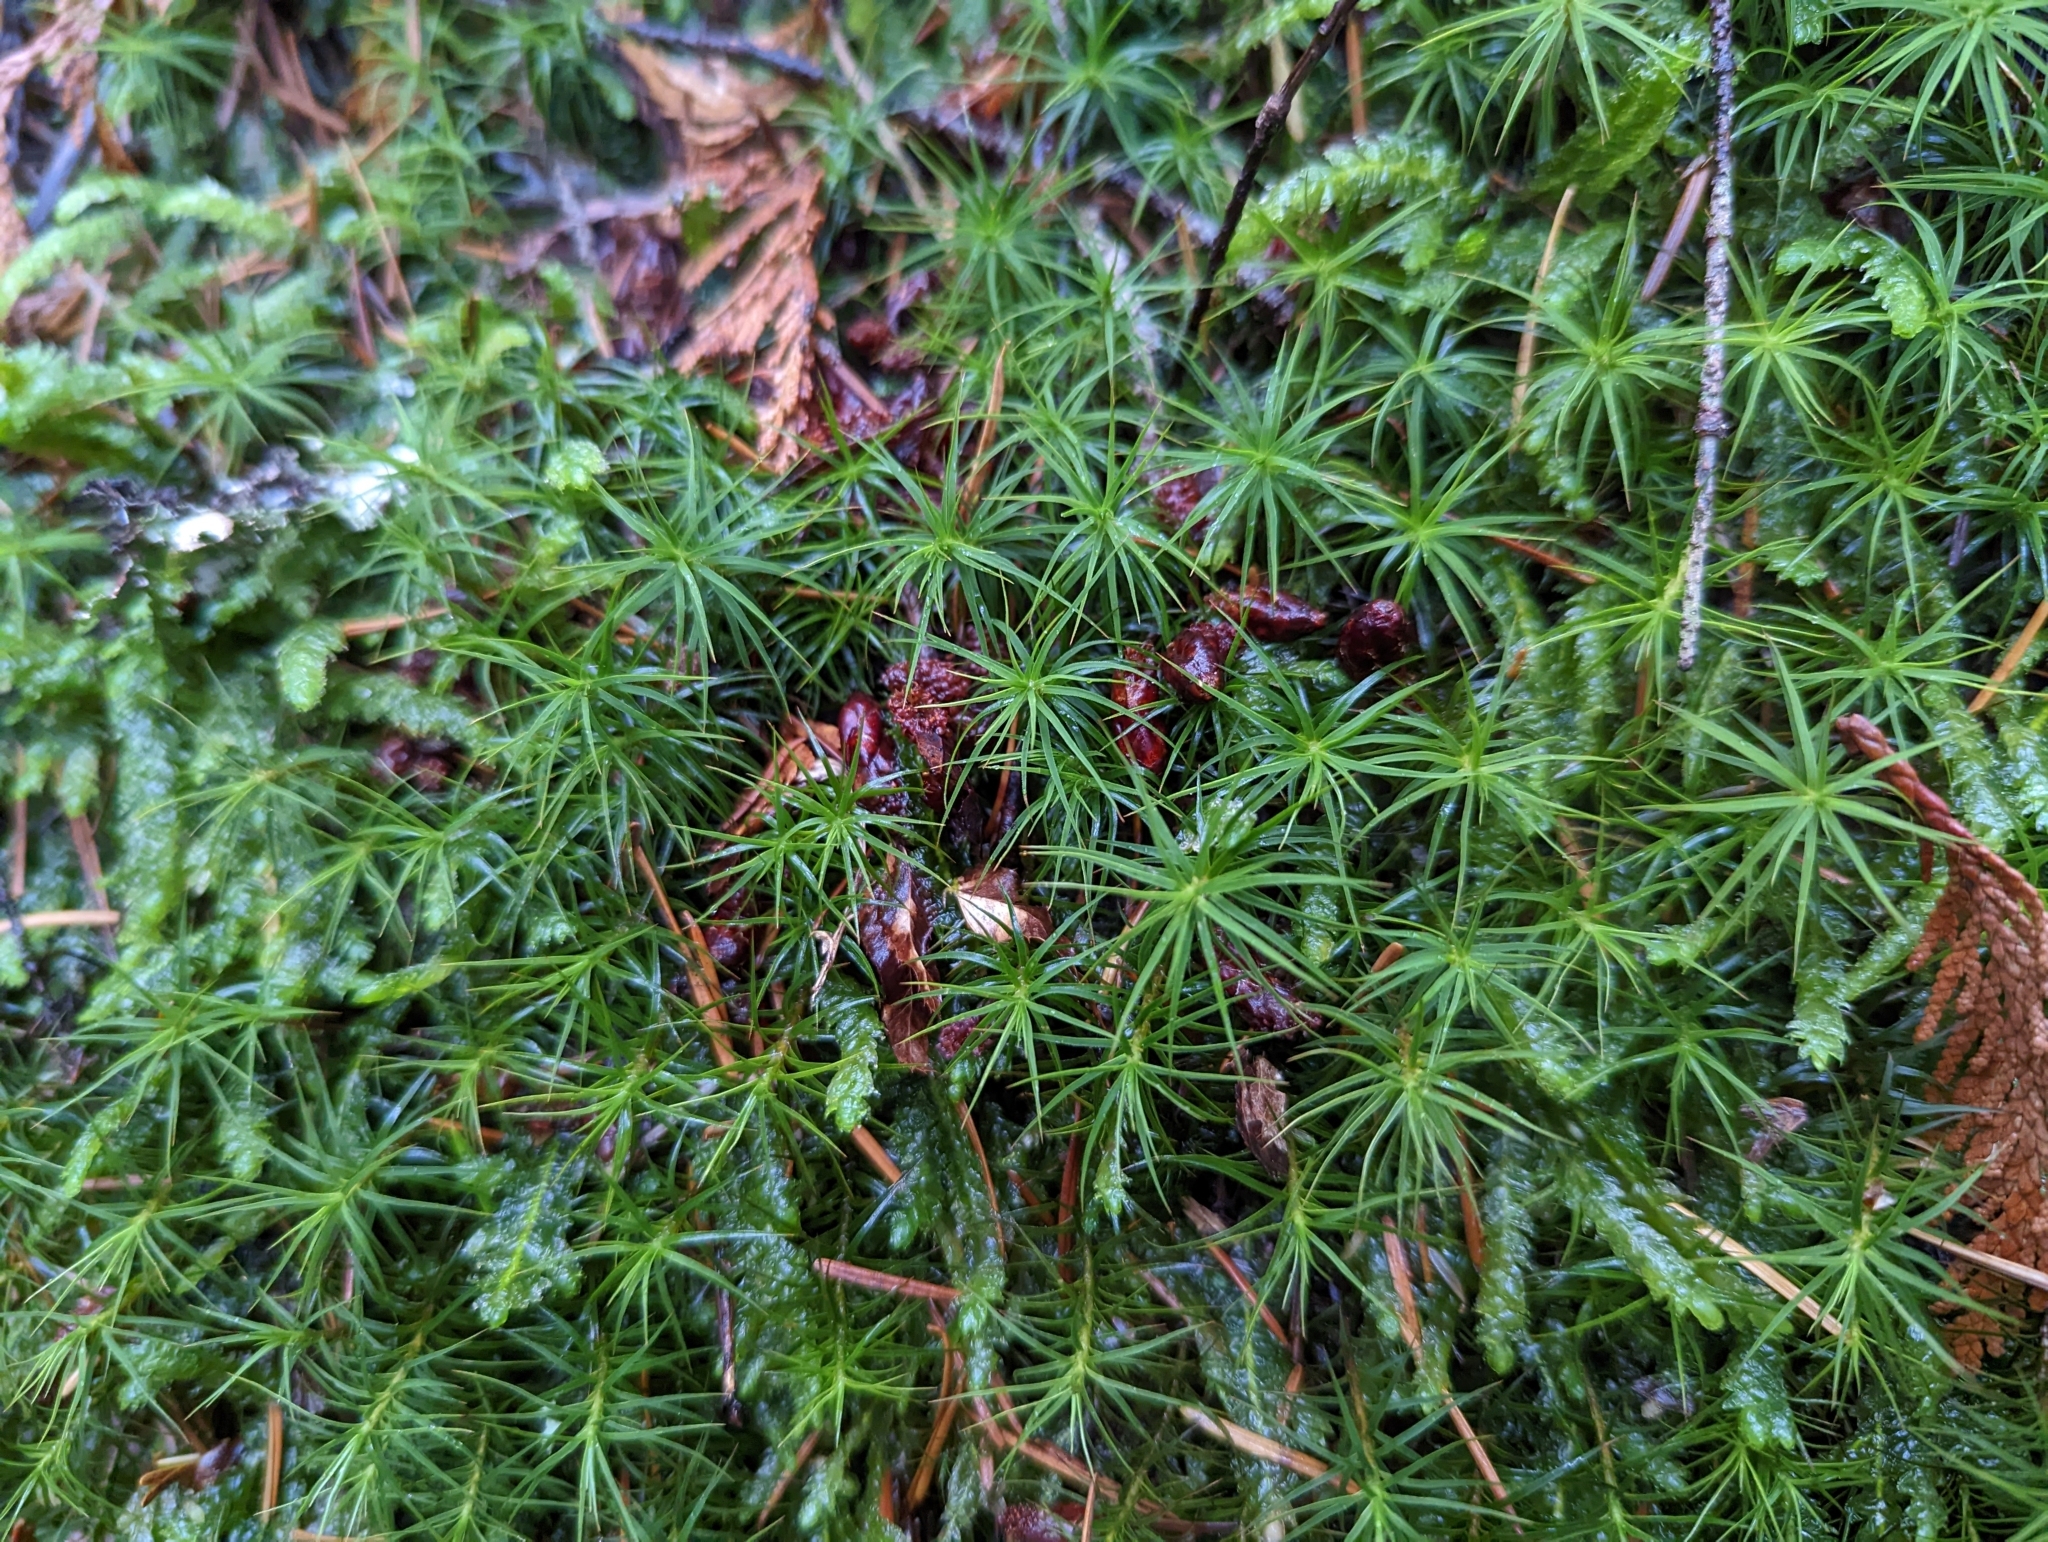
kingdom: Plantae
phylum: Bryophyta
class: Polytrichopsida
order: Polytrichales
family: Polytrichaceae
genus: Polytrichastrum
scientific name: Polytrichastrum alpinum
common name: Alpine haircap
